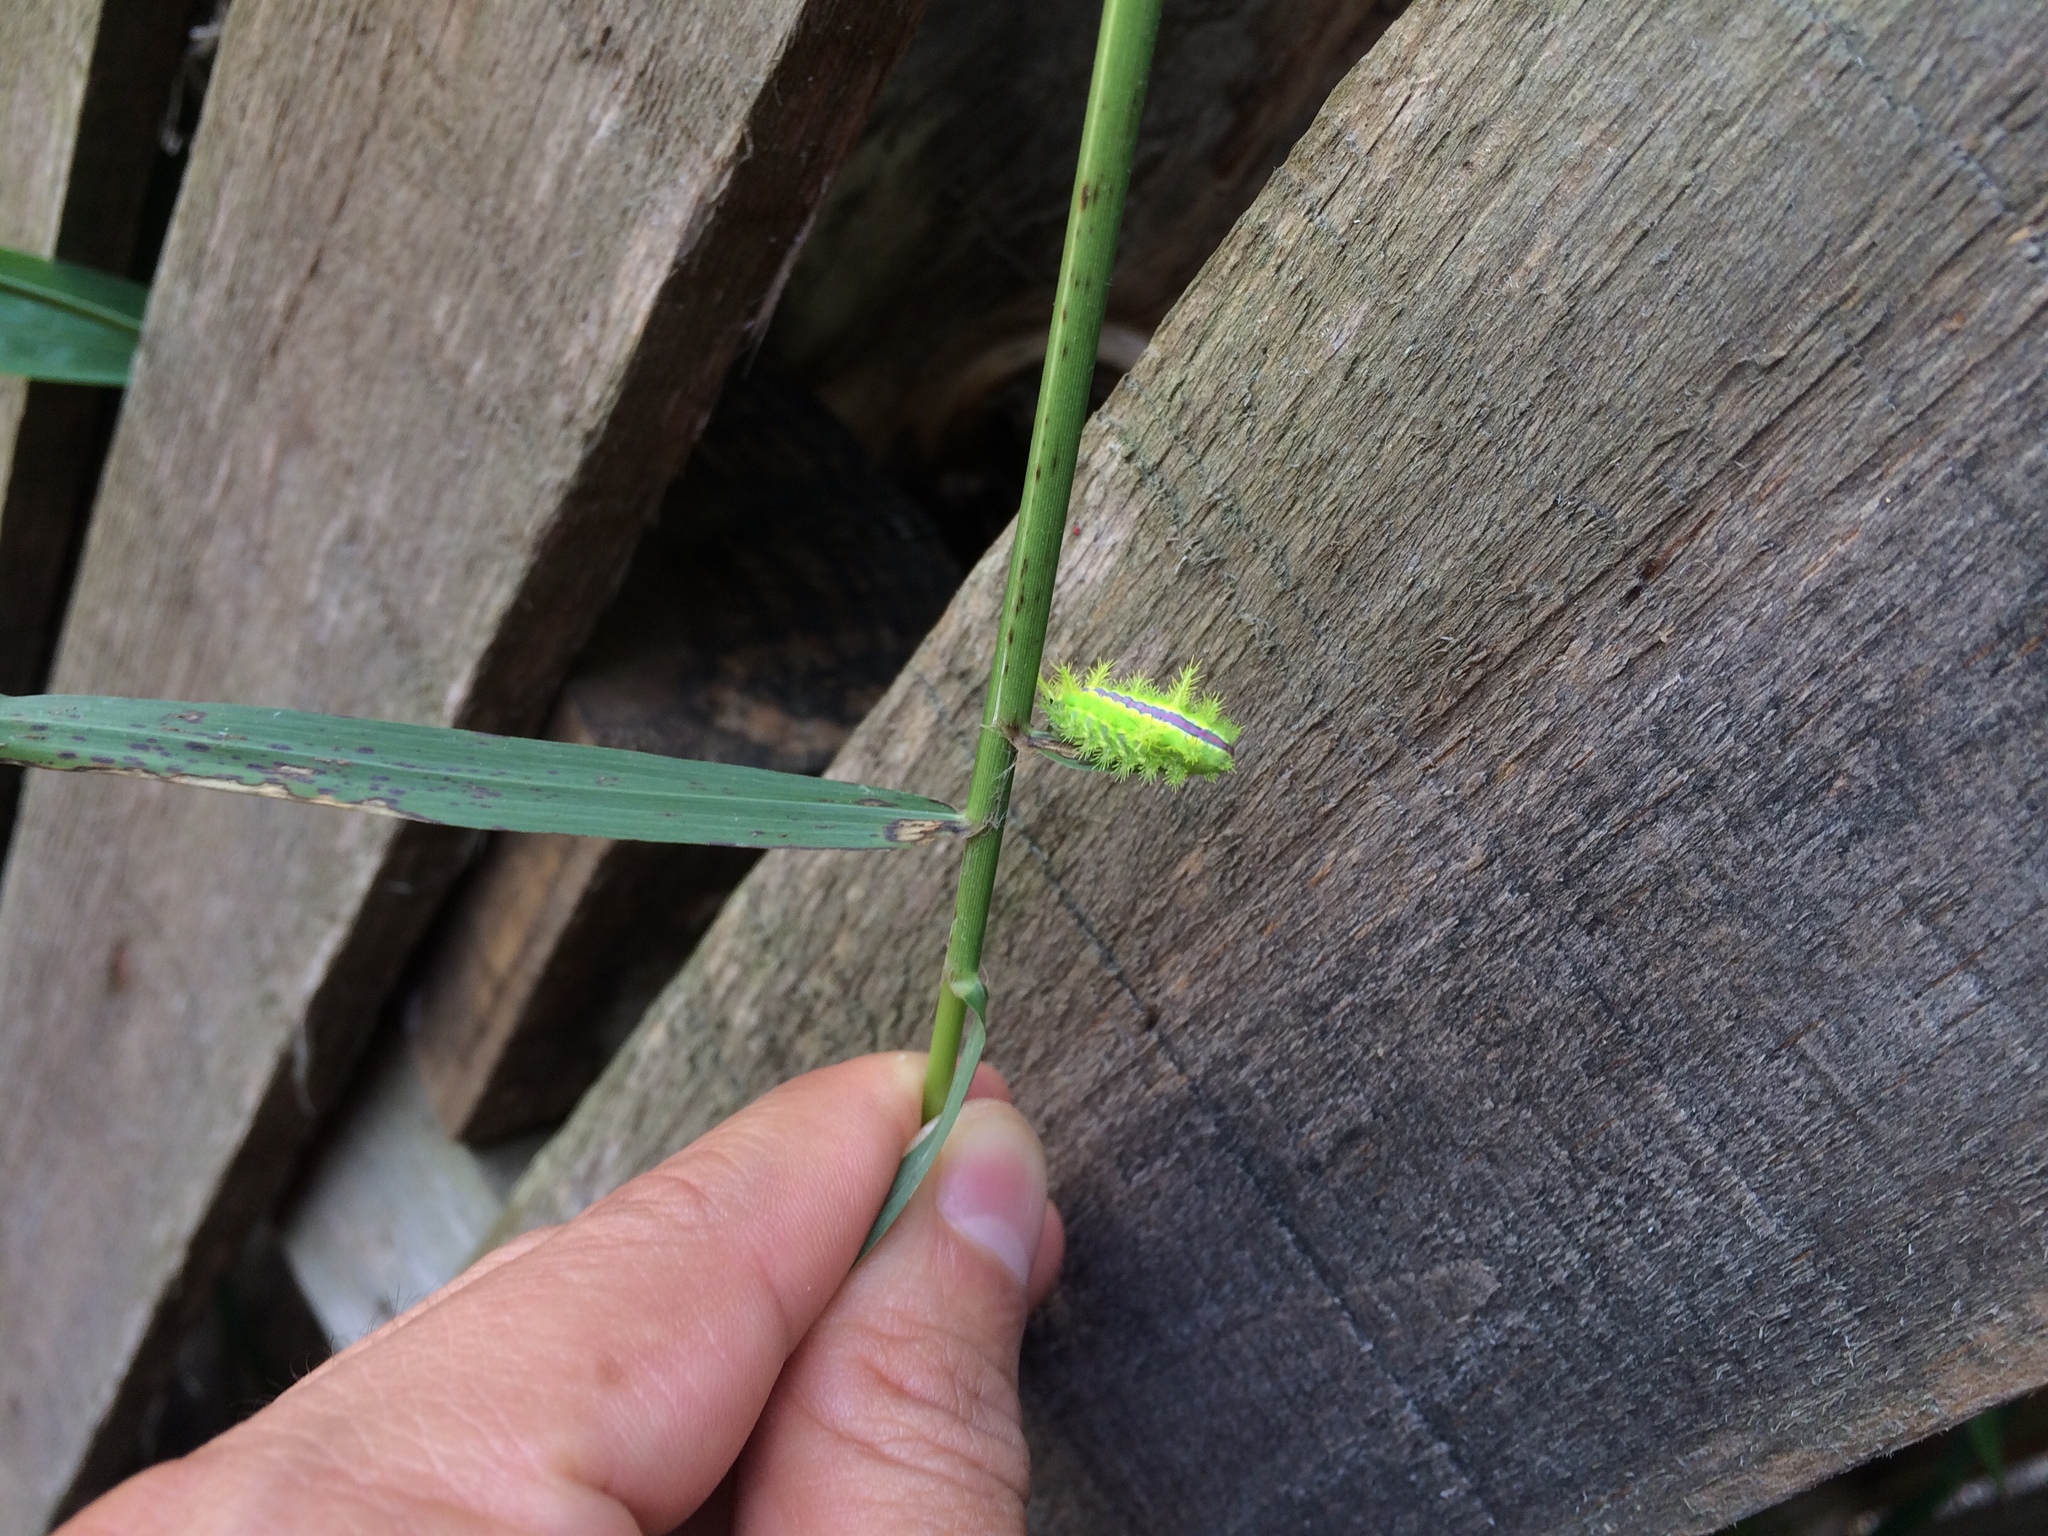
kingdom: Animalia
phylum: Arthropoda
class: Insecta
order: Lepidoptera
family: Limacodidae
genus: Euclea
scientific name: Euclea plugma
